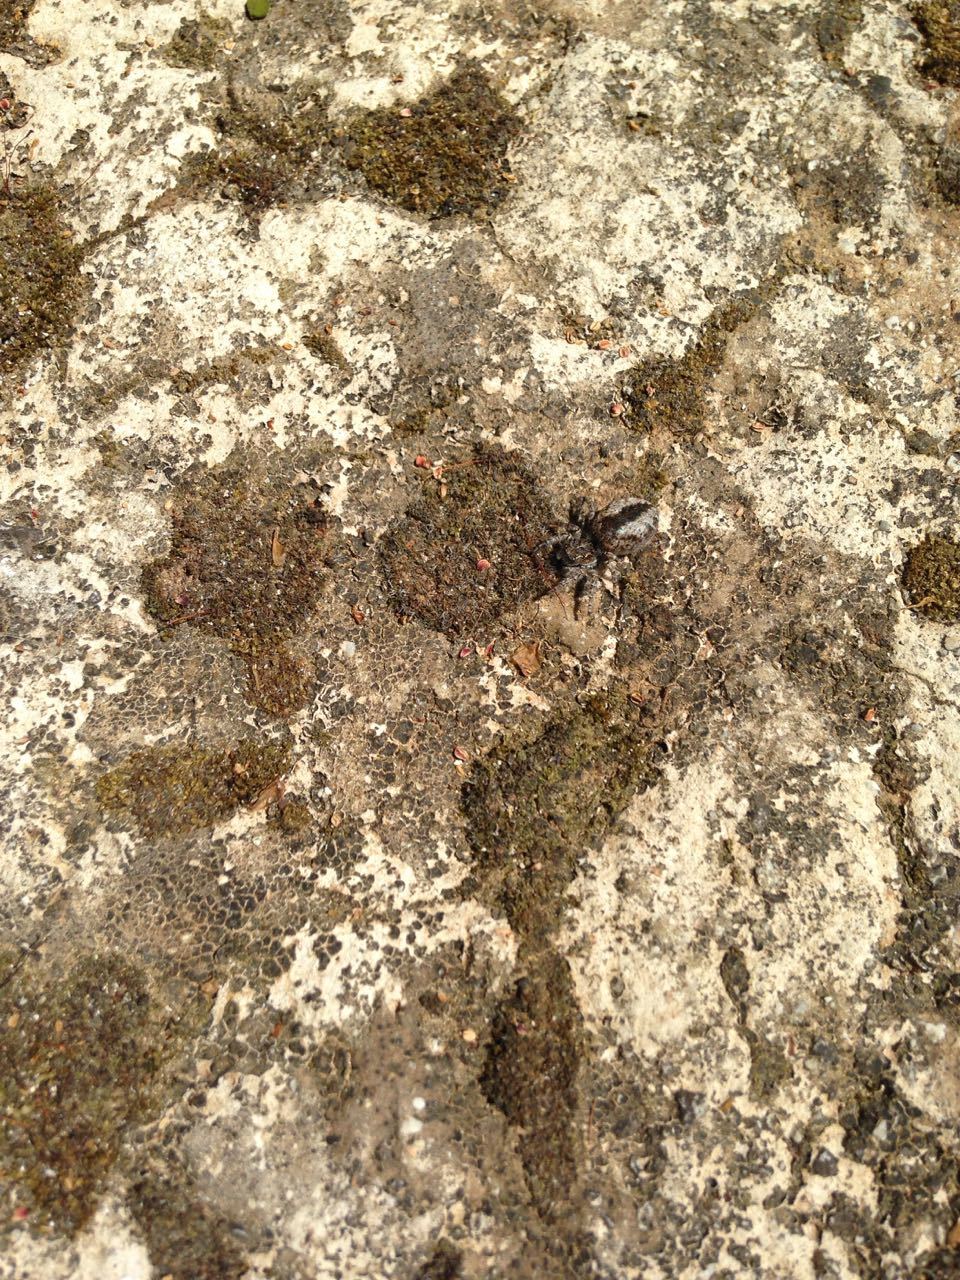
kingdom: Animalia
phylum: Arthropoda
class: Arachnida
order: Araneae
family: Salticidae
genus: Philaeus
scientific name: Philaeus chrysops
